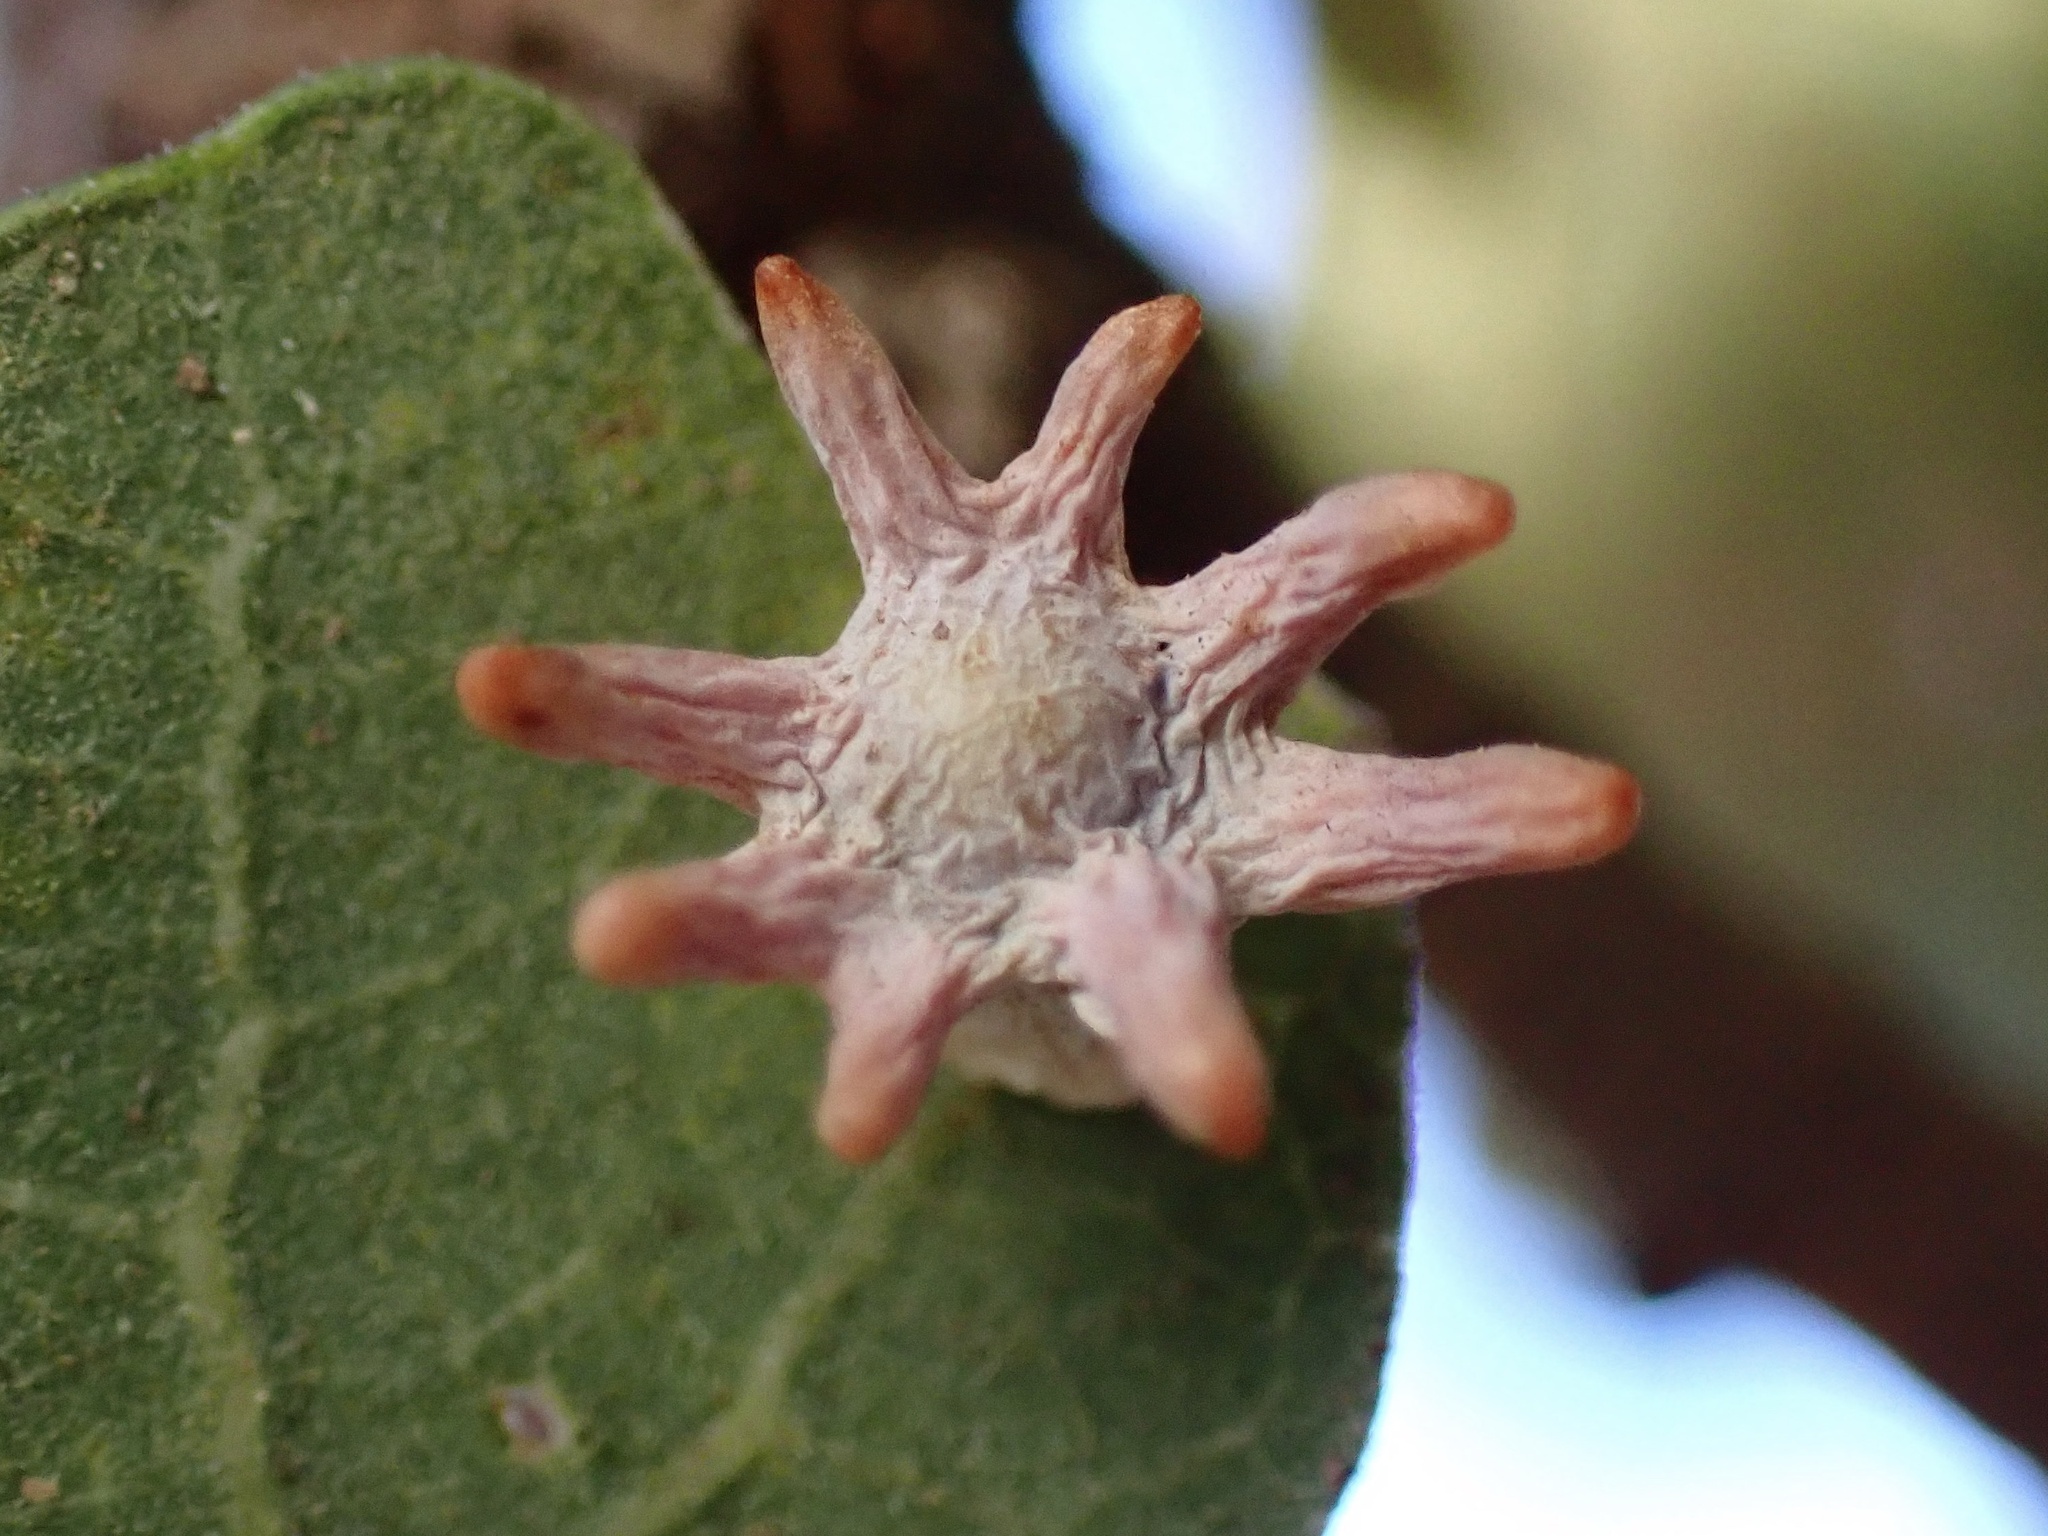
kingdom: Animalia
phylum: Arthropoda
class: Insecta
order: Hymenoptera
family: Cynipidae
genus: Cynips
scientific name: Cynips douglasi
